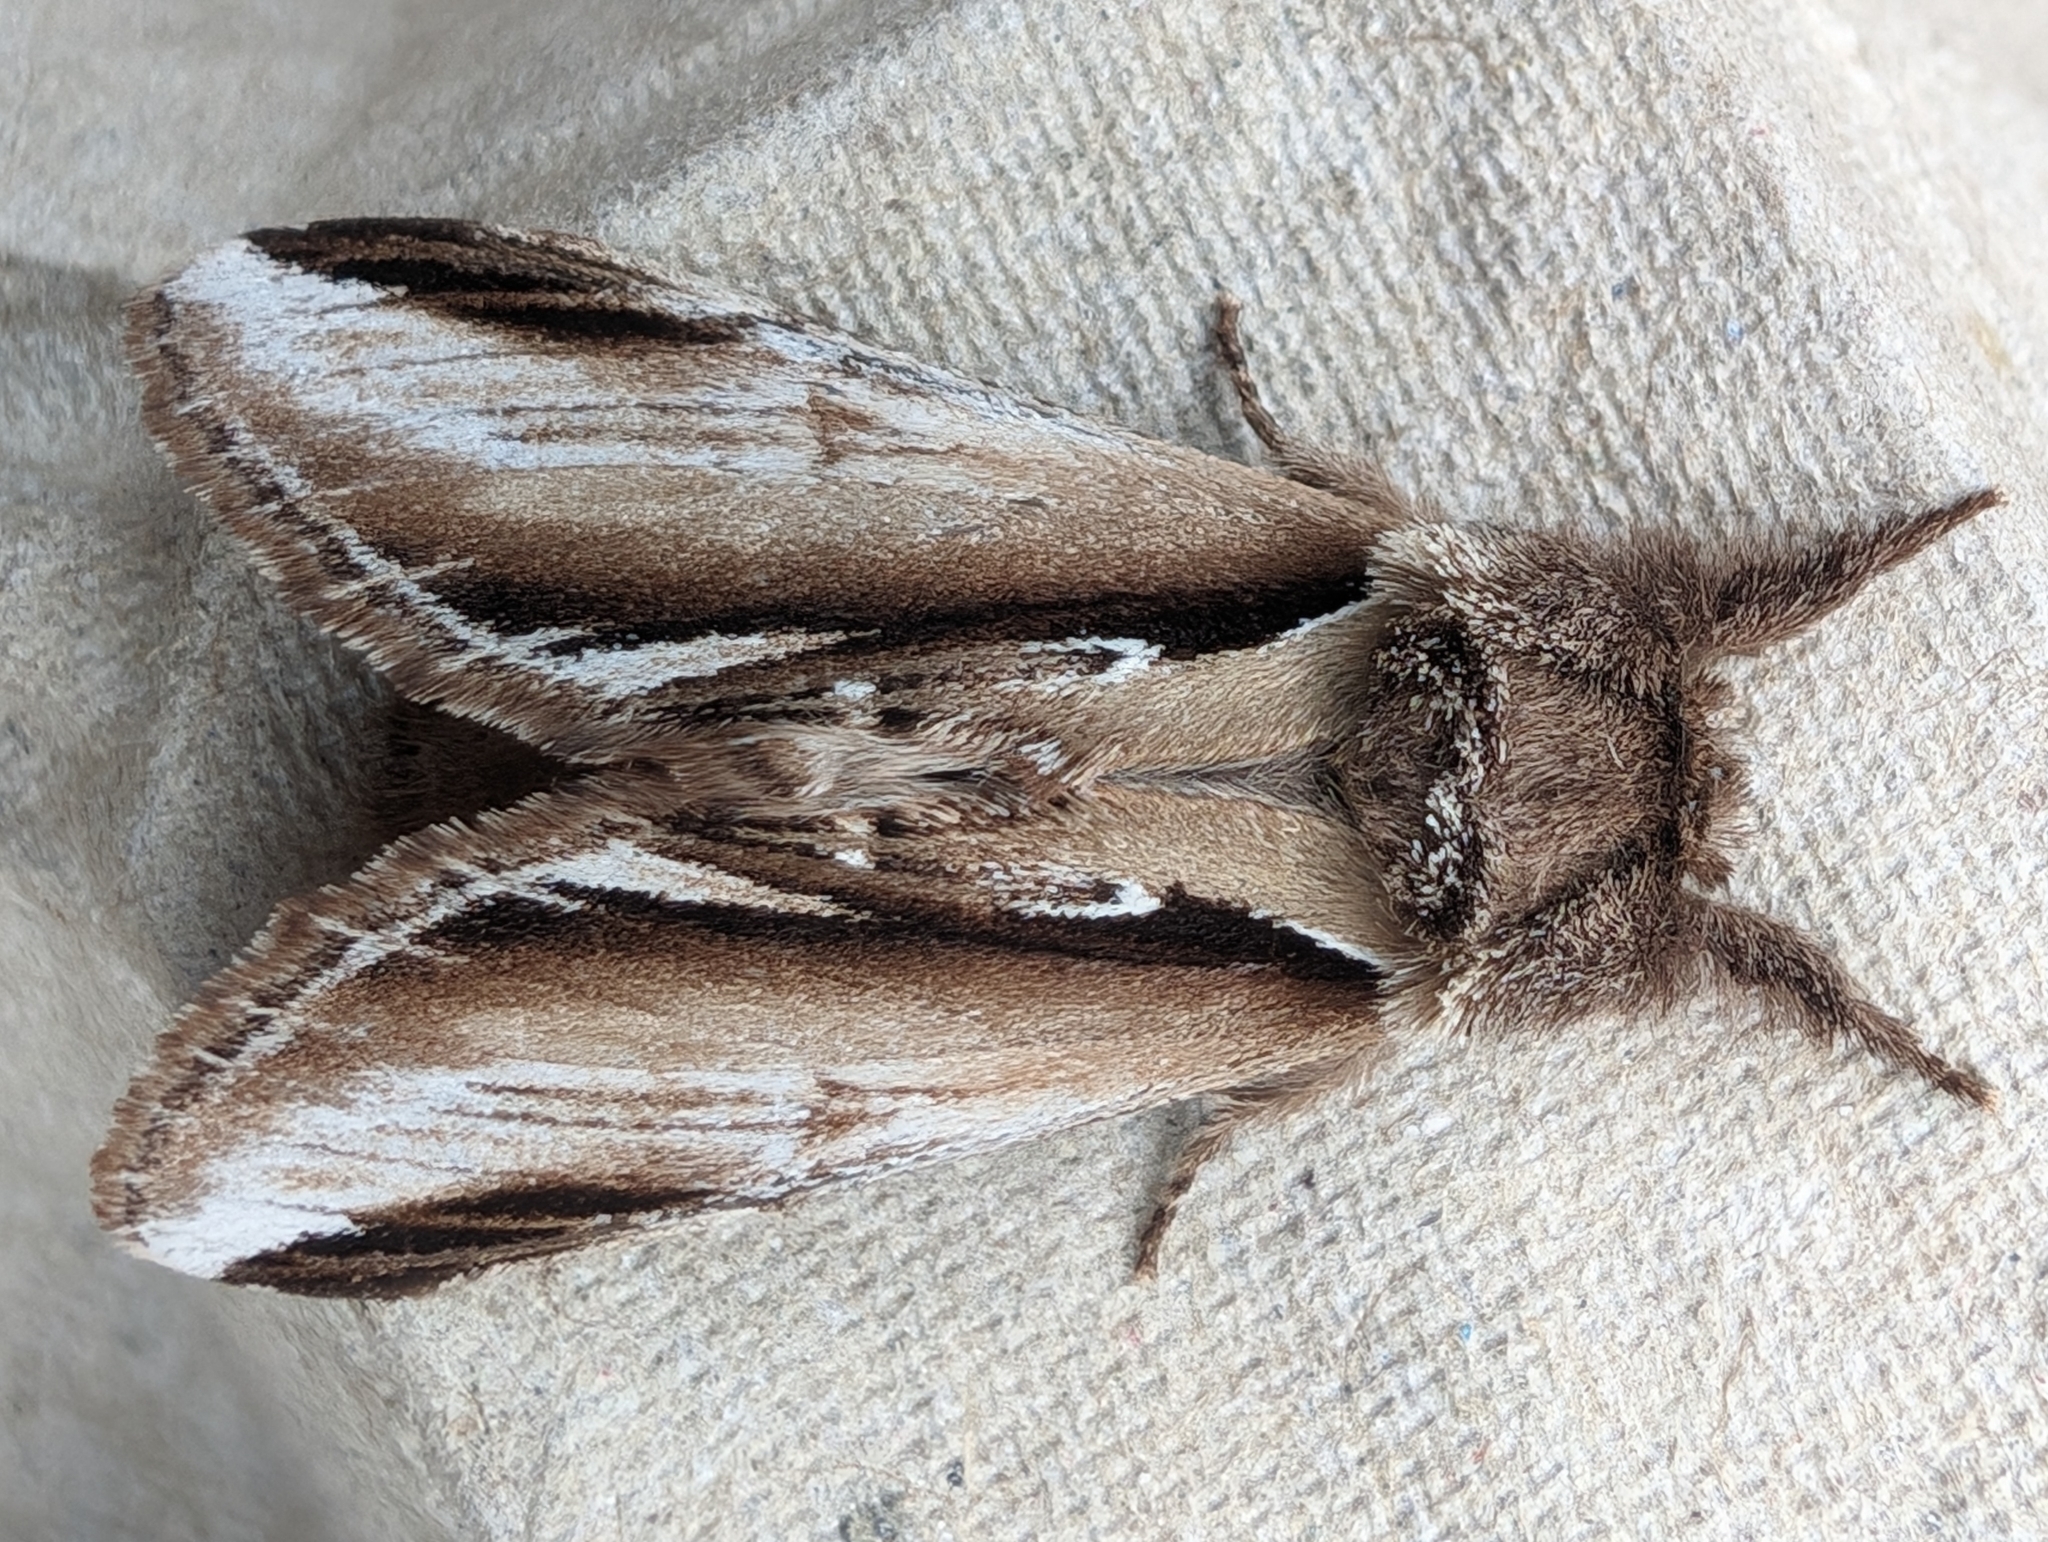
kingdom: Animalia
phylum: Arthropoda
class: Insecta
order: Lepidoptera
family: Notodontidae
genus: Pheosia
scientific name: Pheosia gnoma
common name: Lesser swallow prominent
